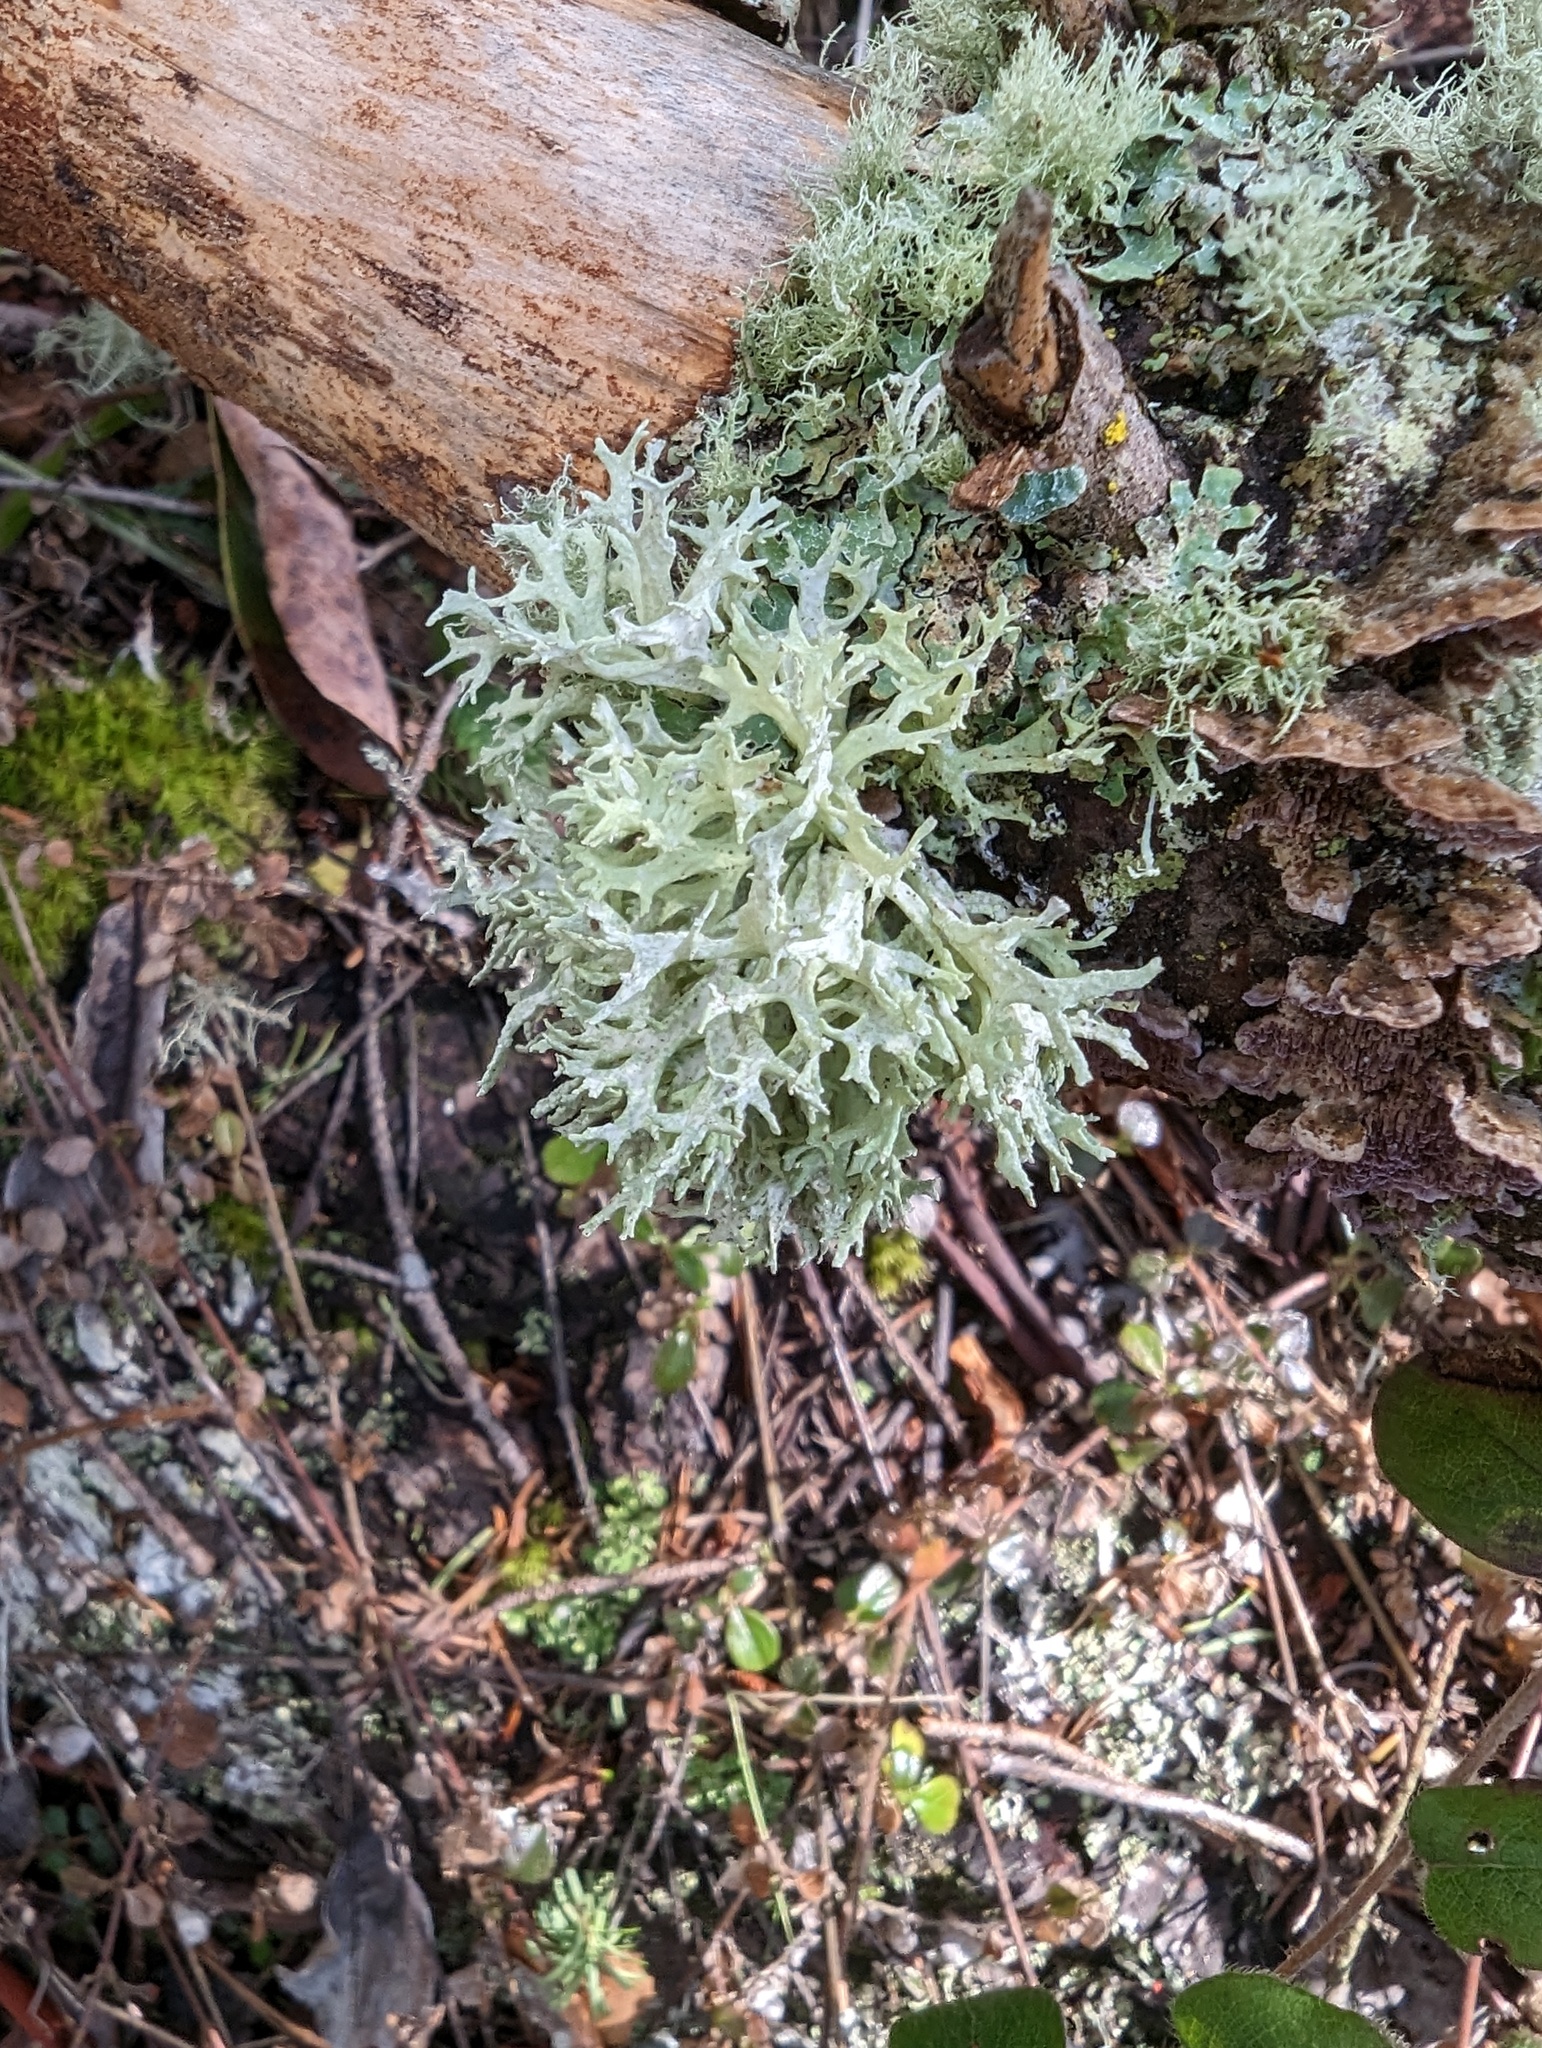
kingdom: Fungi
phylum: Ascomycota
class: Lecanoromycetes
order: Lecanorales
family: Parmeliaceae
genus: Evernia
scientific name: Evernia prunastri
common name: Oak moss
